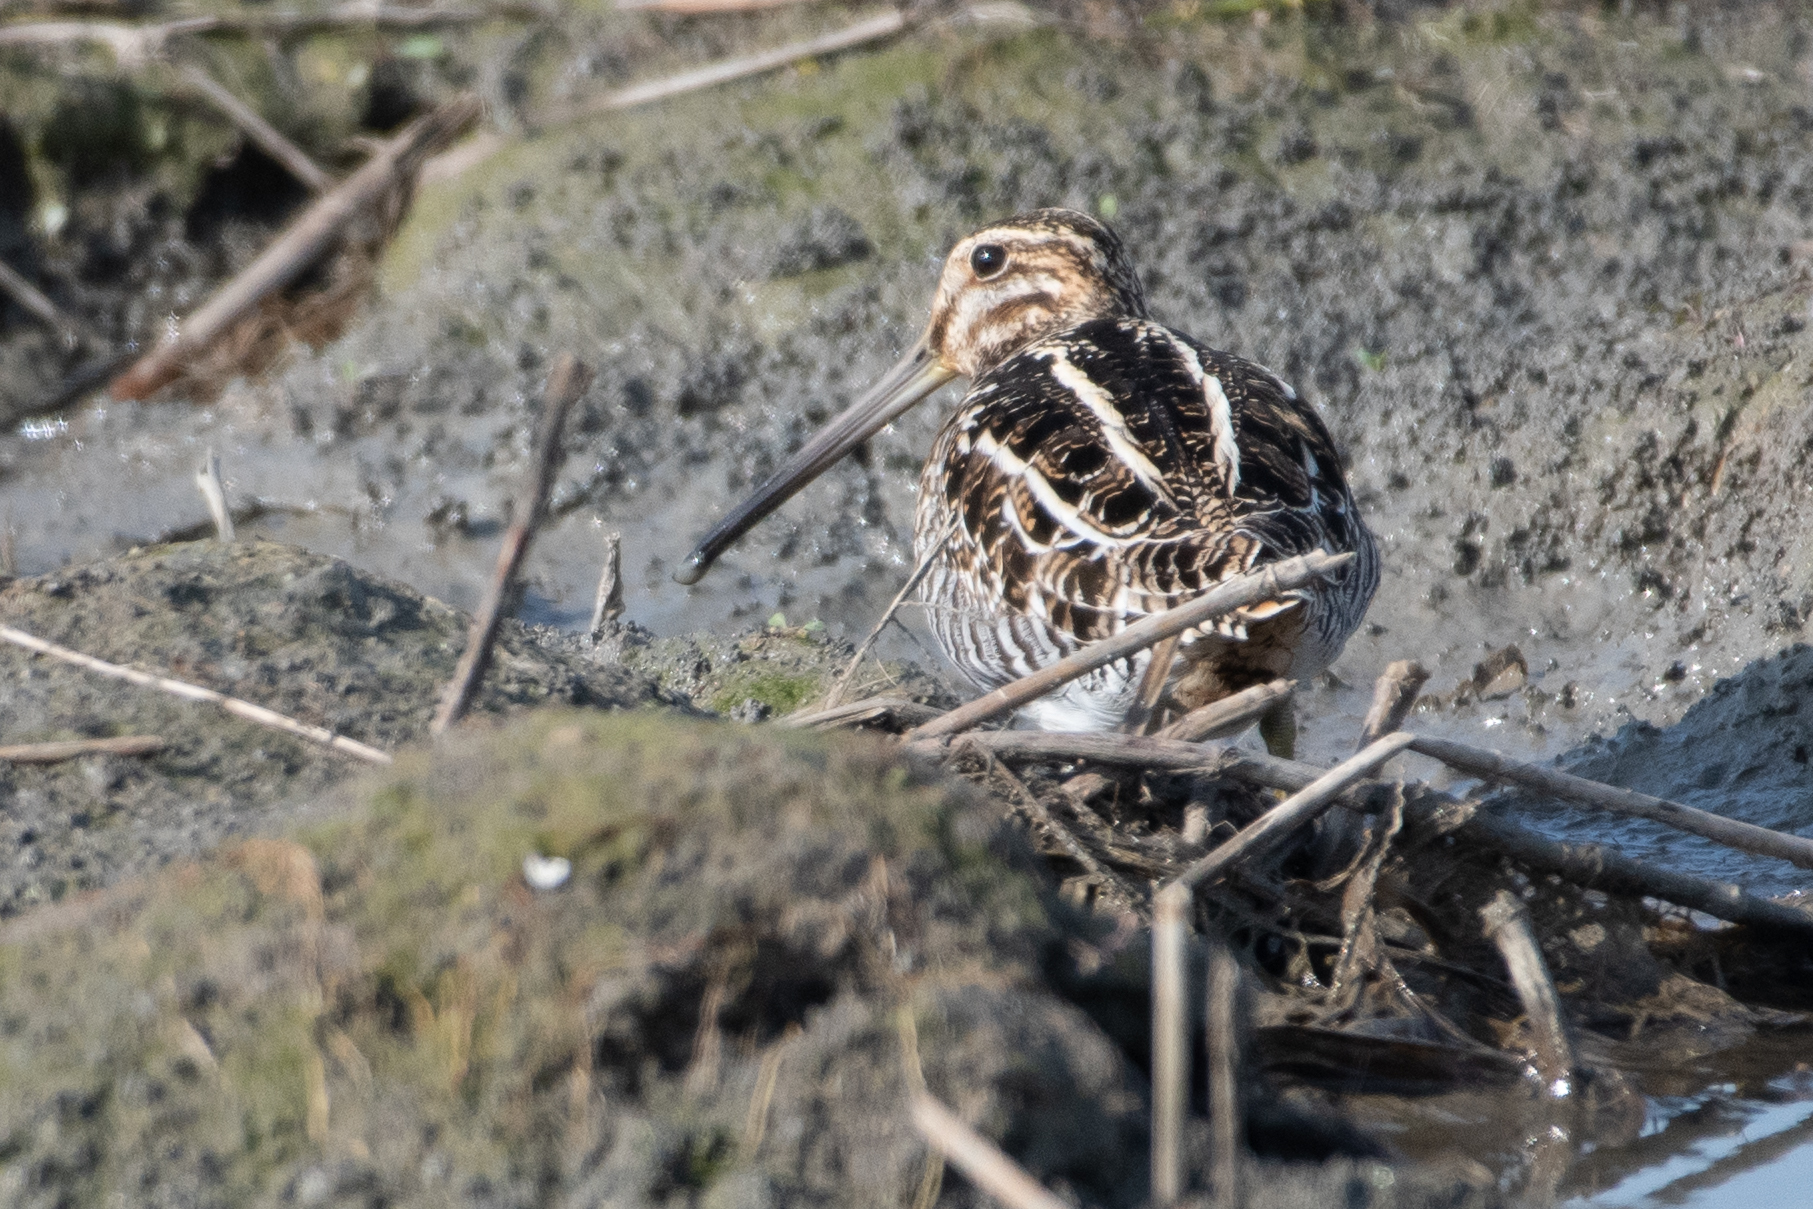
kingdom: Animalia
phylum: Chordata
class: Aves
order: Charadriiformes
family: Scolopacidae
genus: Gallinago
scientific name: Gallinago delicata
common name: Wilson's snipe
